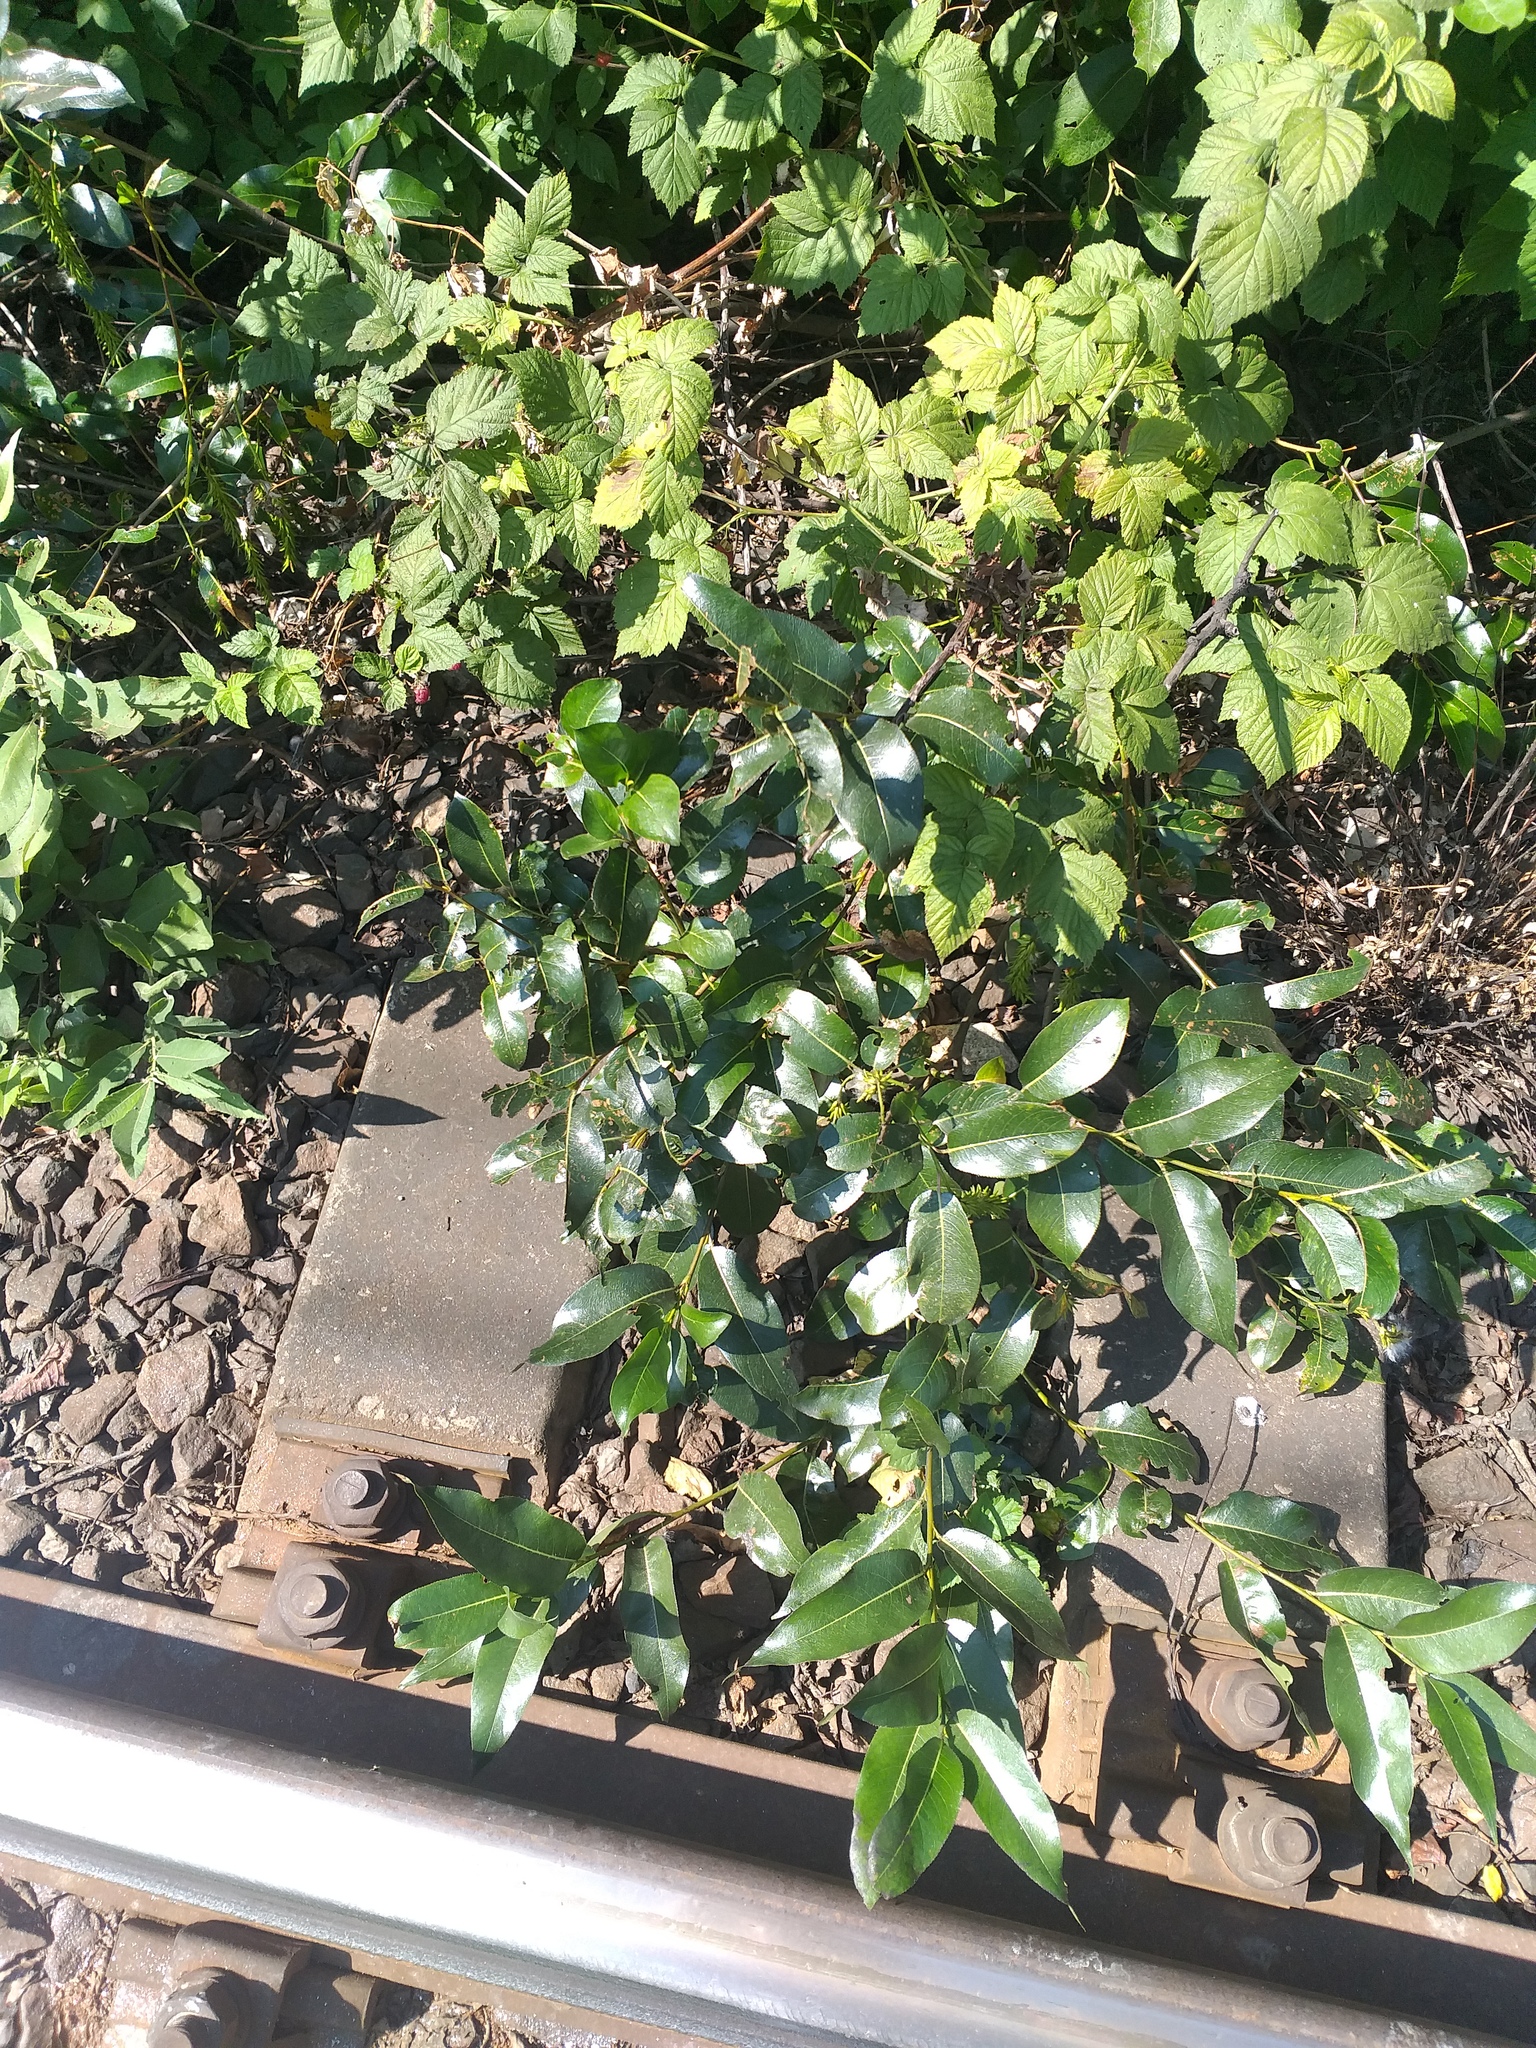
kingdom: Plantae
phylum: Tracheophyta
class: Magnoliopsida
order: Malpighiales
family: Salicaceae
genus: Salix
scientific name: Salix pentandra
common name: Bay willow
